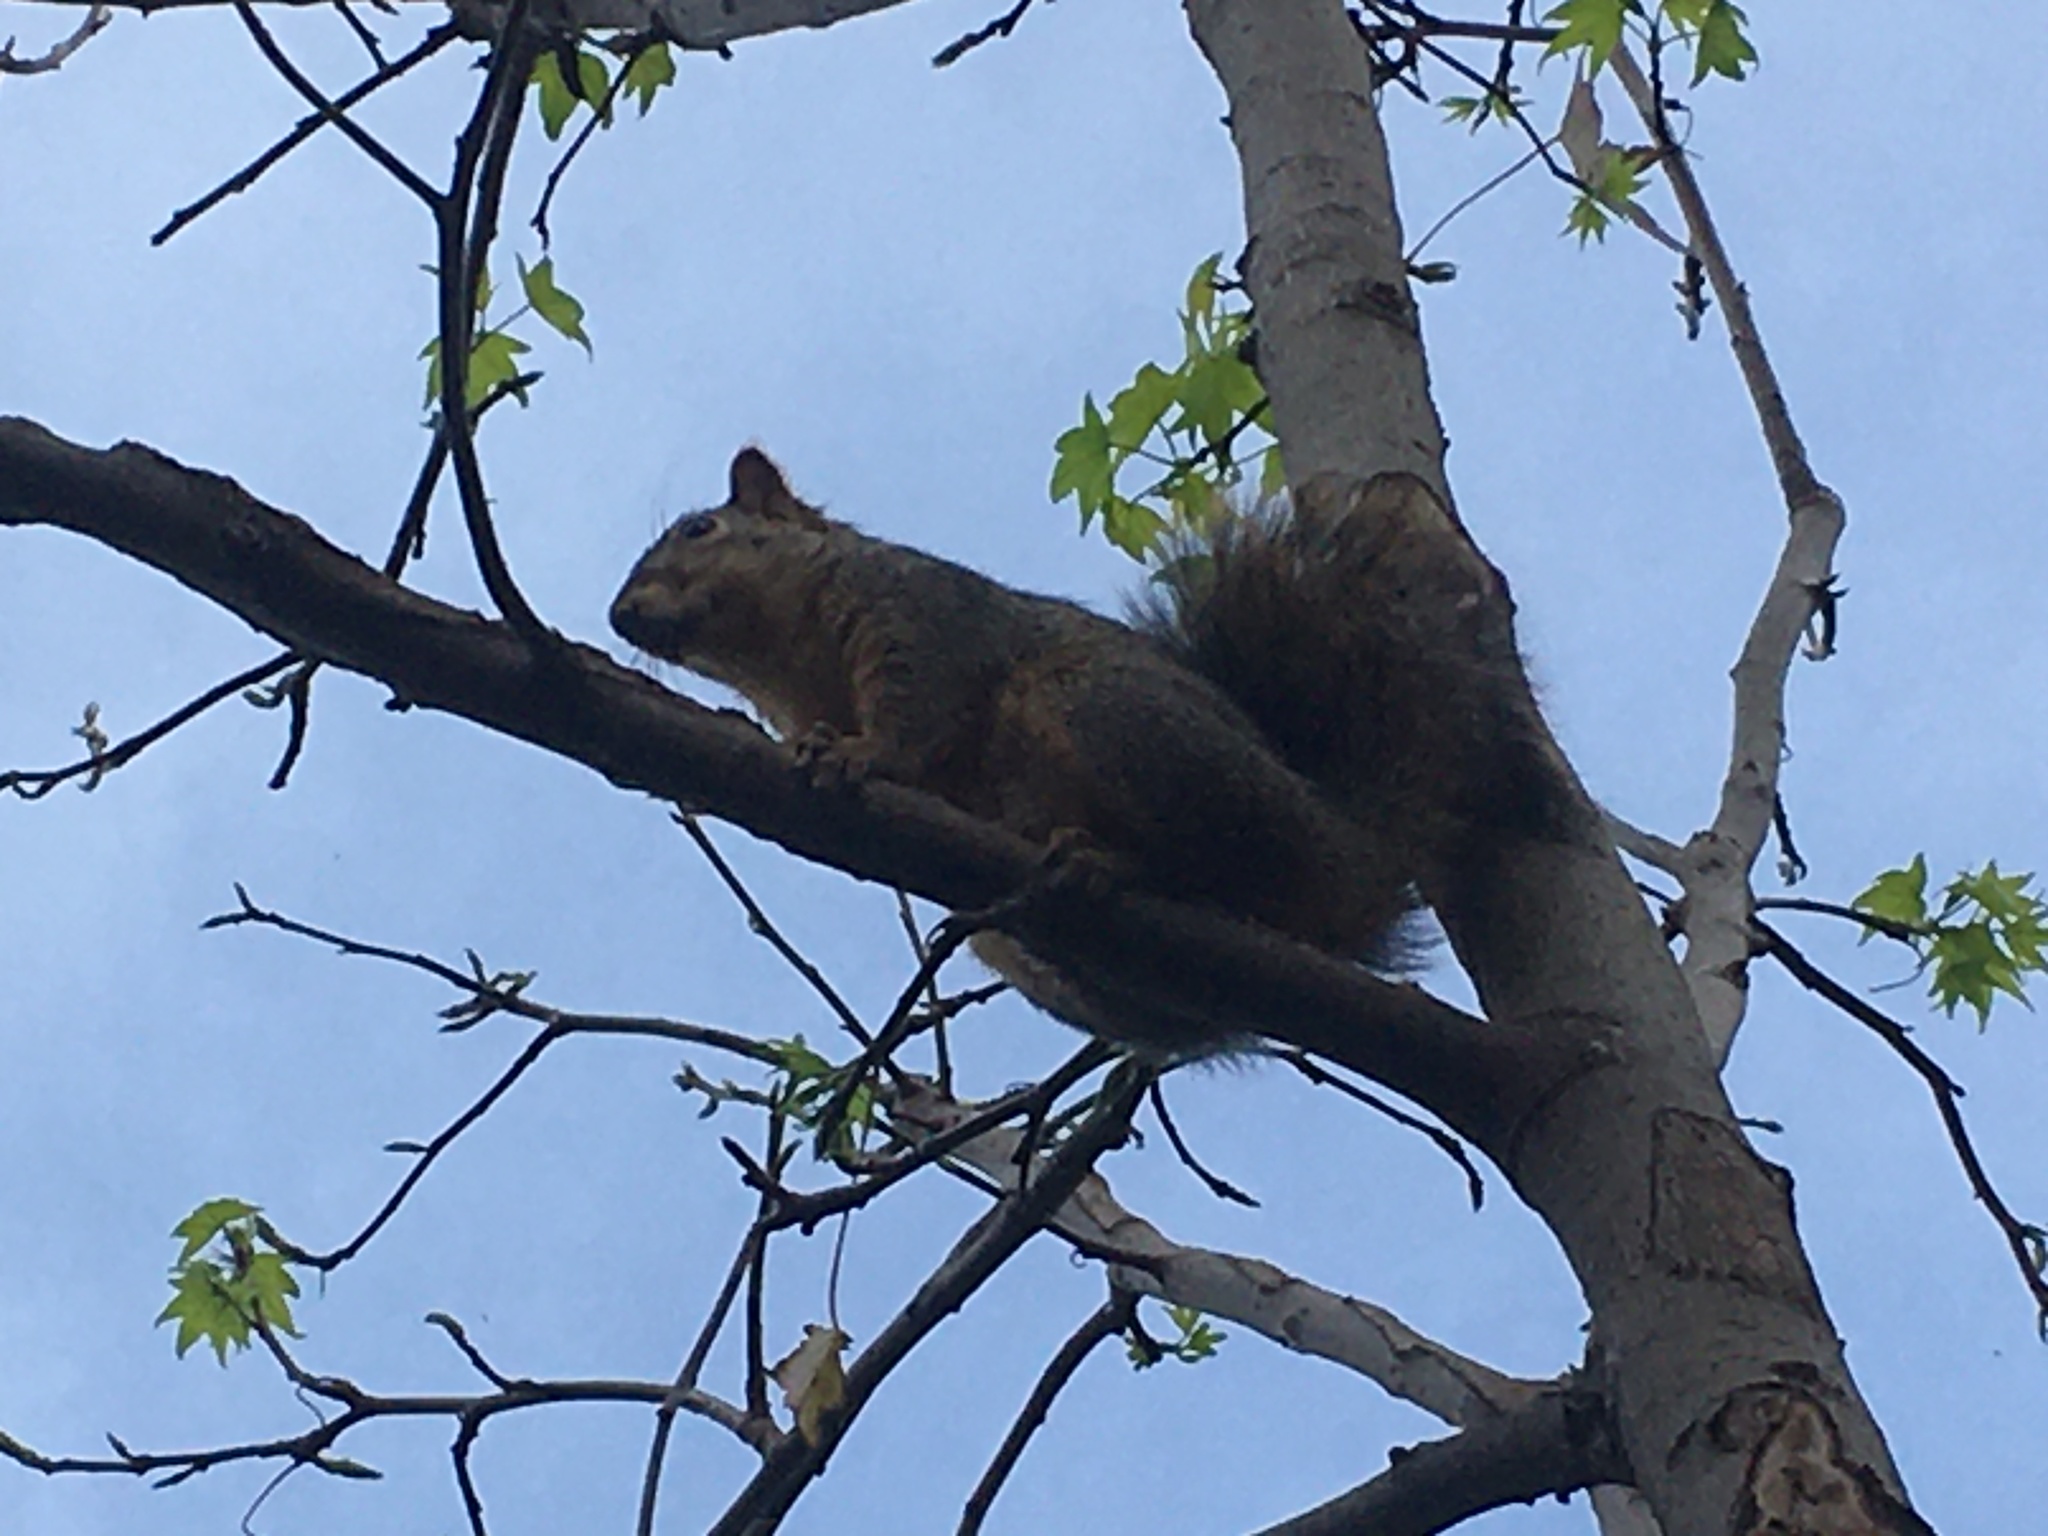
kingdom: Animalia
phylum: Chordata
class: Mammalia
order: Rodentia
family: Sciuridae
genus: Sciurus
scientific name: Sciurus niger
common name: Fox squirrel
